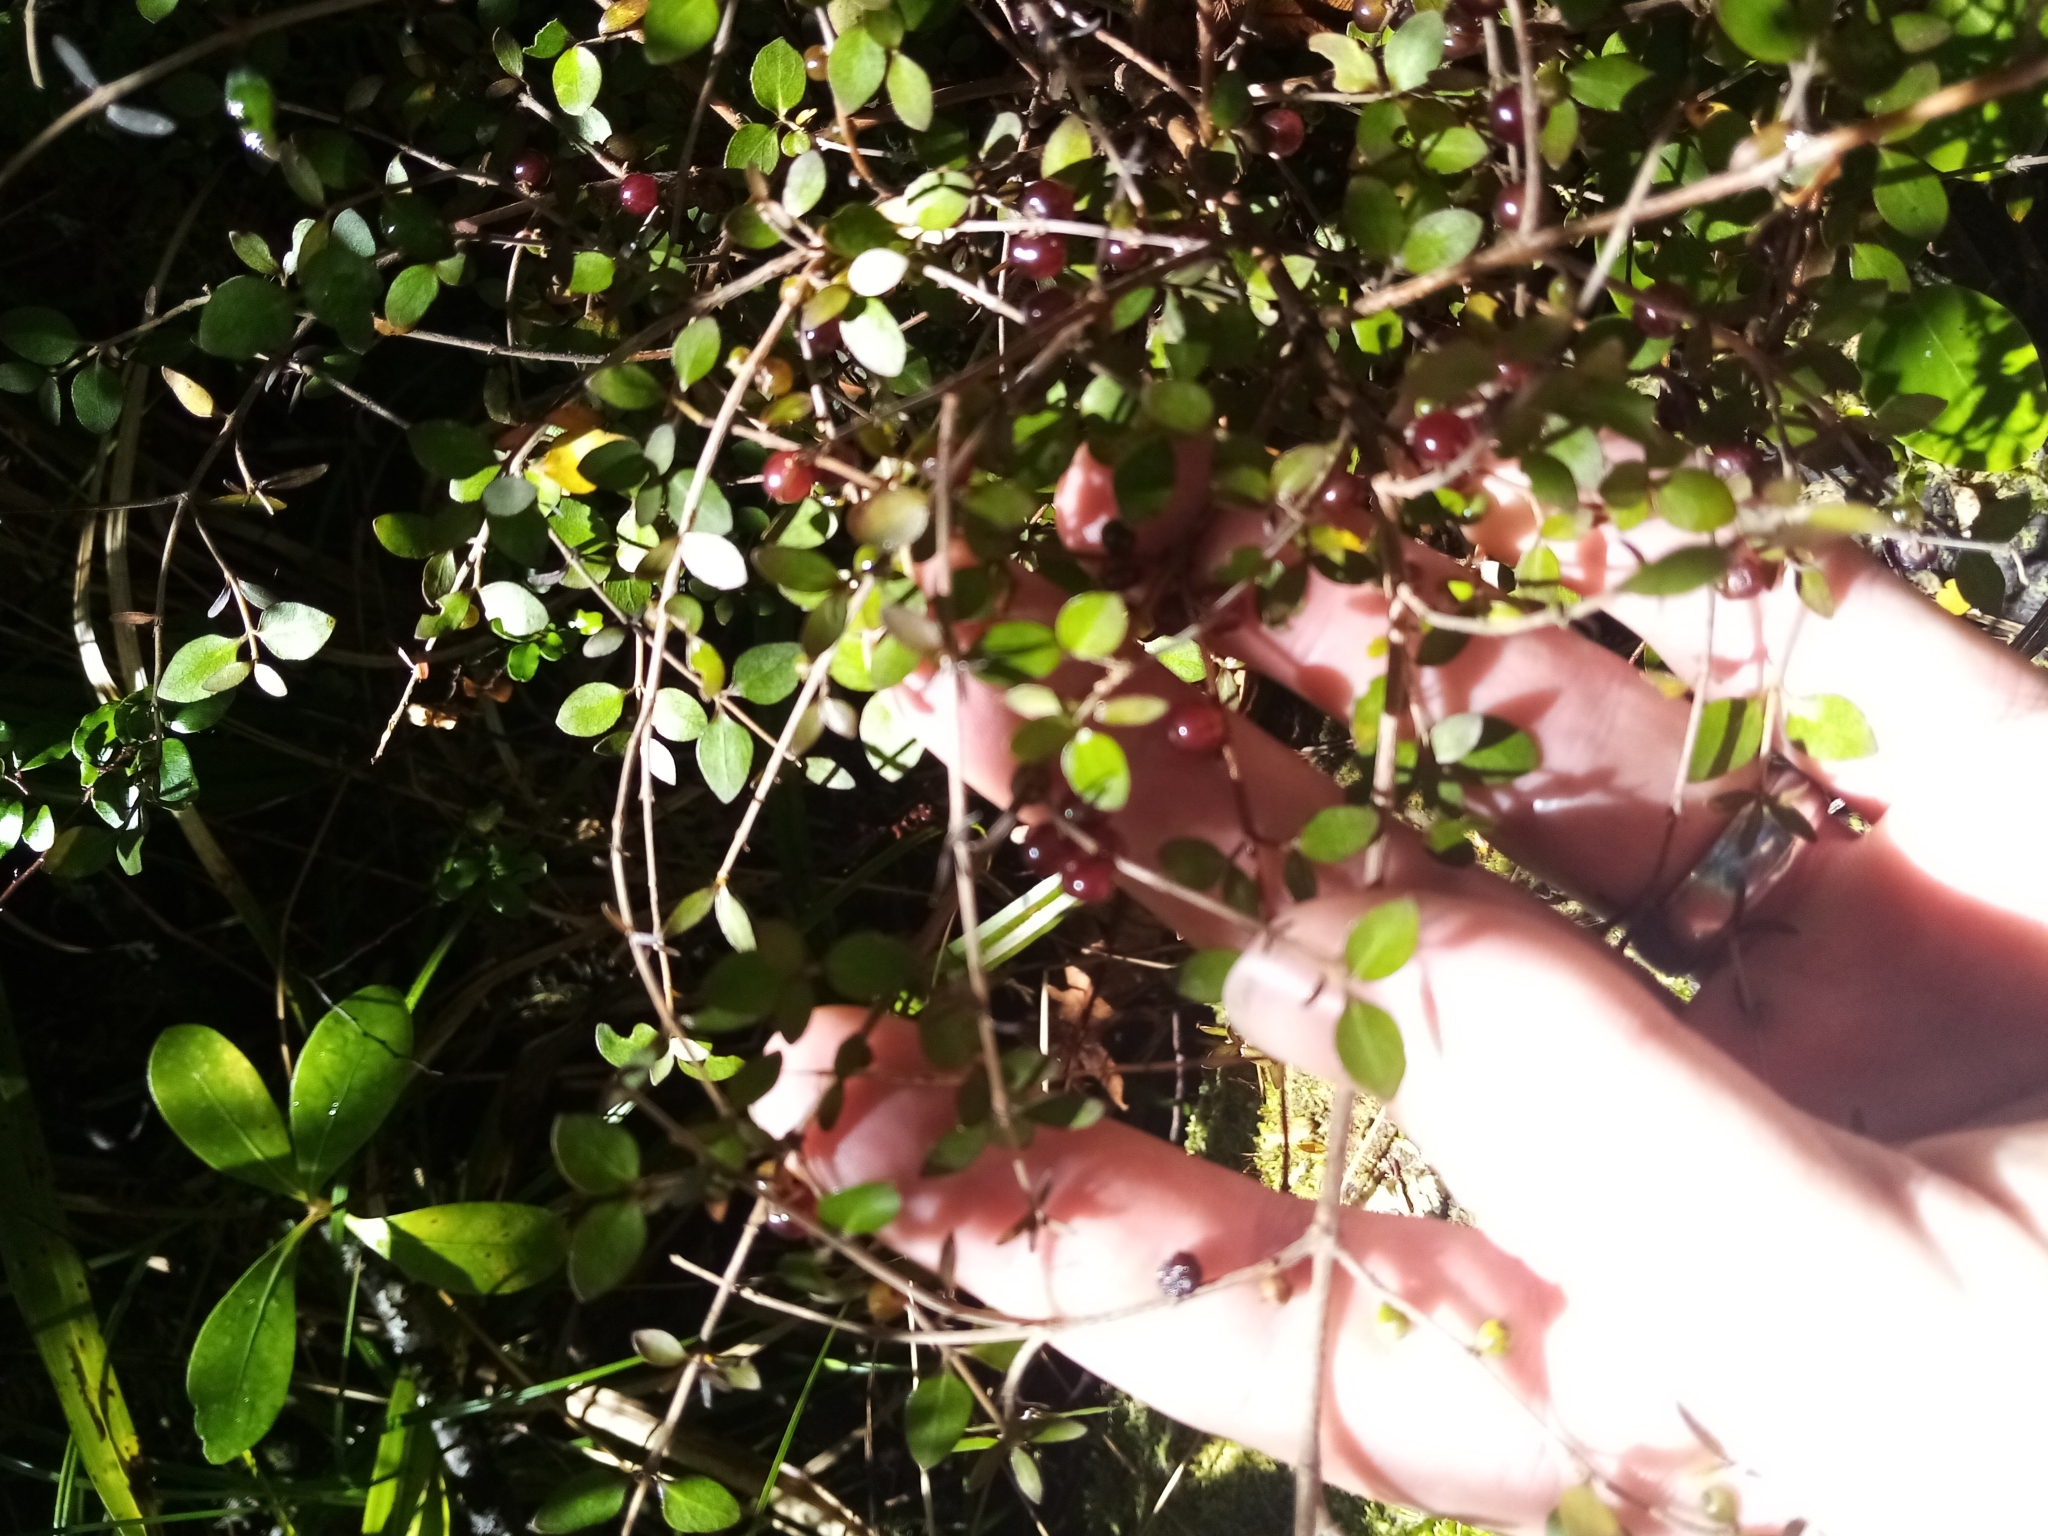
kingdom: Plantae
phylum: Tracheophyta
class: Magnoliopsida
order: Gentianales
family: Rubiaceae
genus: Coprosma
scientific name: Coprosma rhamnoides
